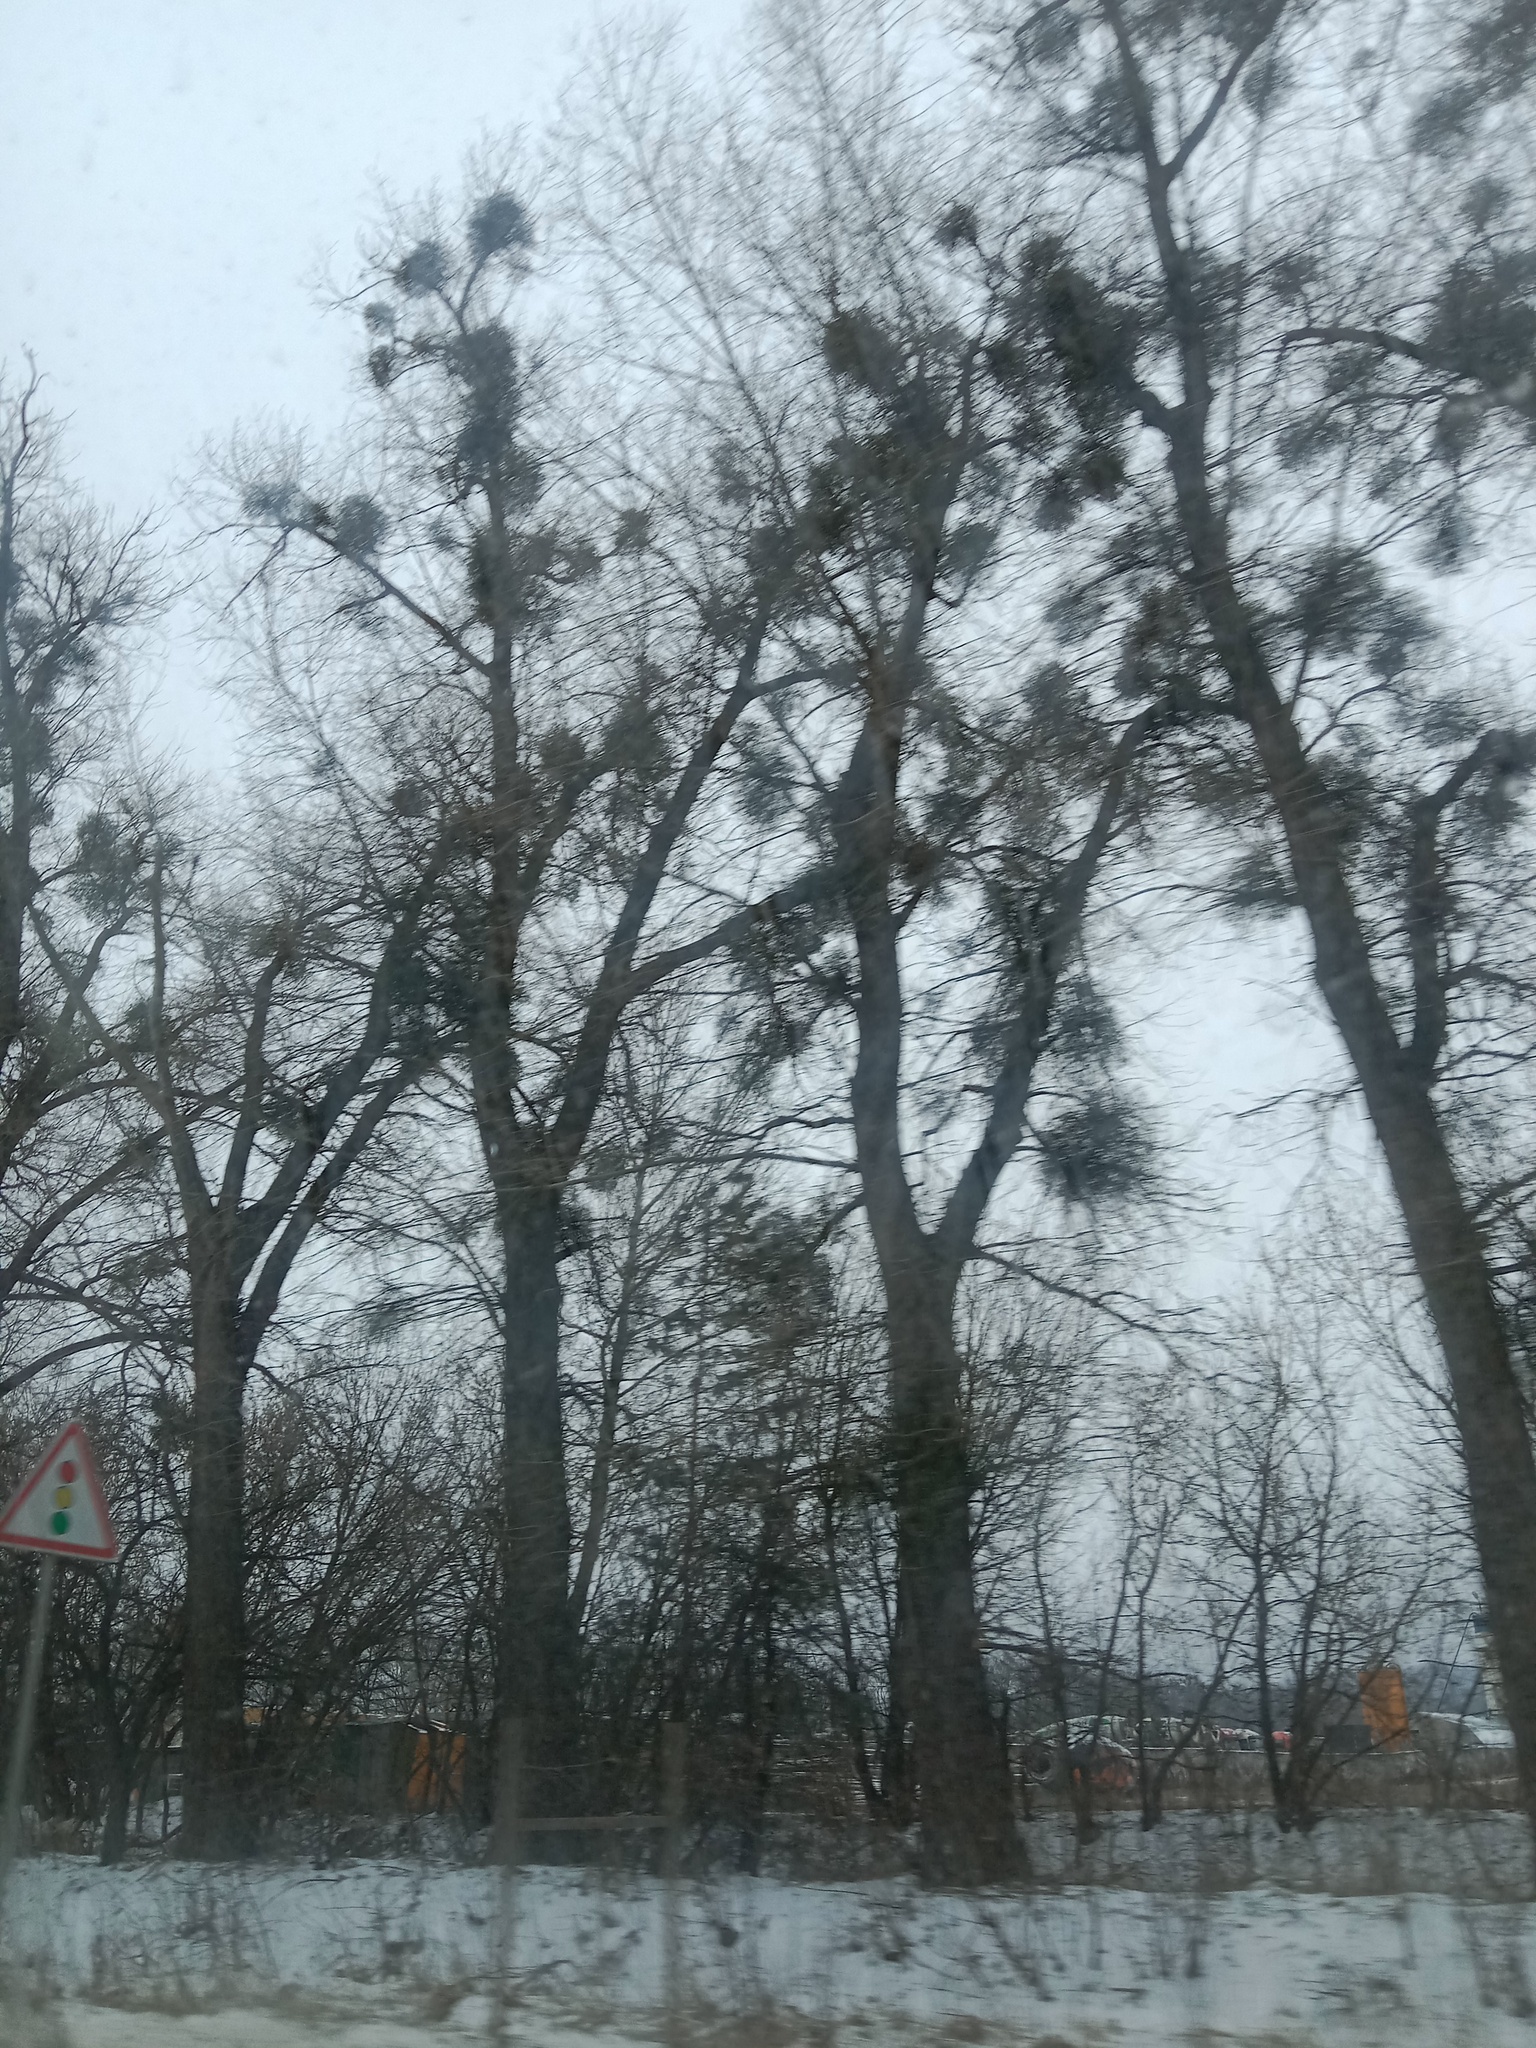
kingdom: Plantae
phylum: Tracheophyta
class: Magnoliopsida
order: Santalales
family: Viscaceae
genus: Viscum
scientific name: Viscum album
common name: Mistletoe
